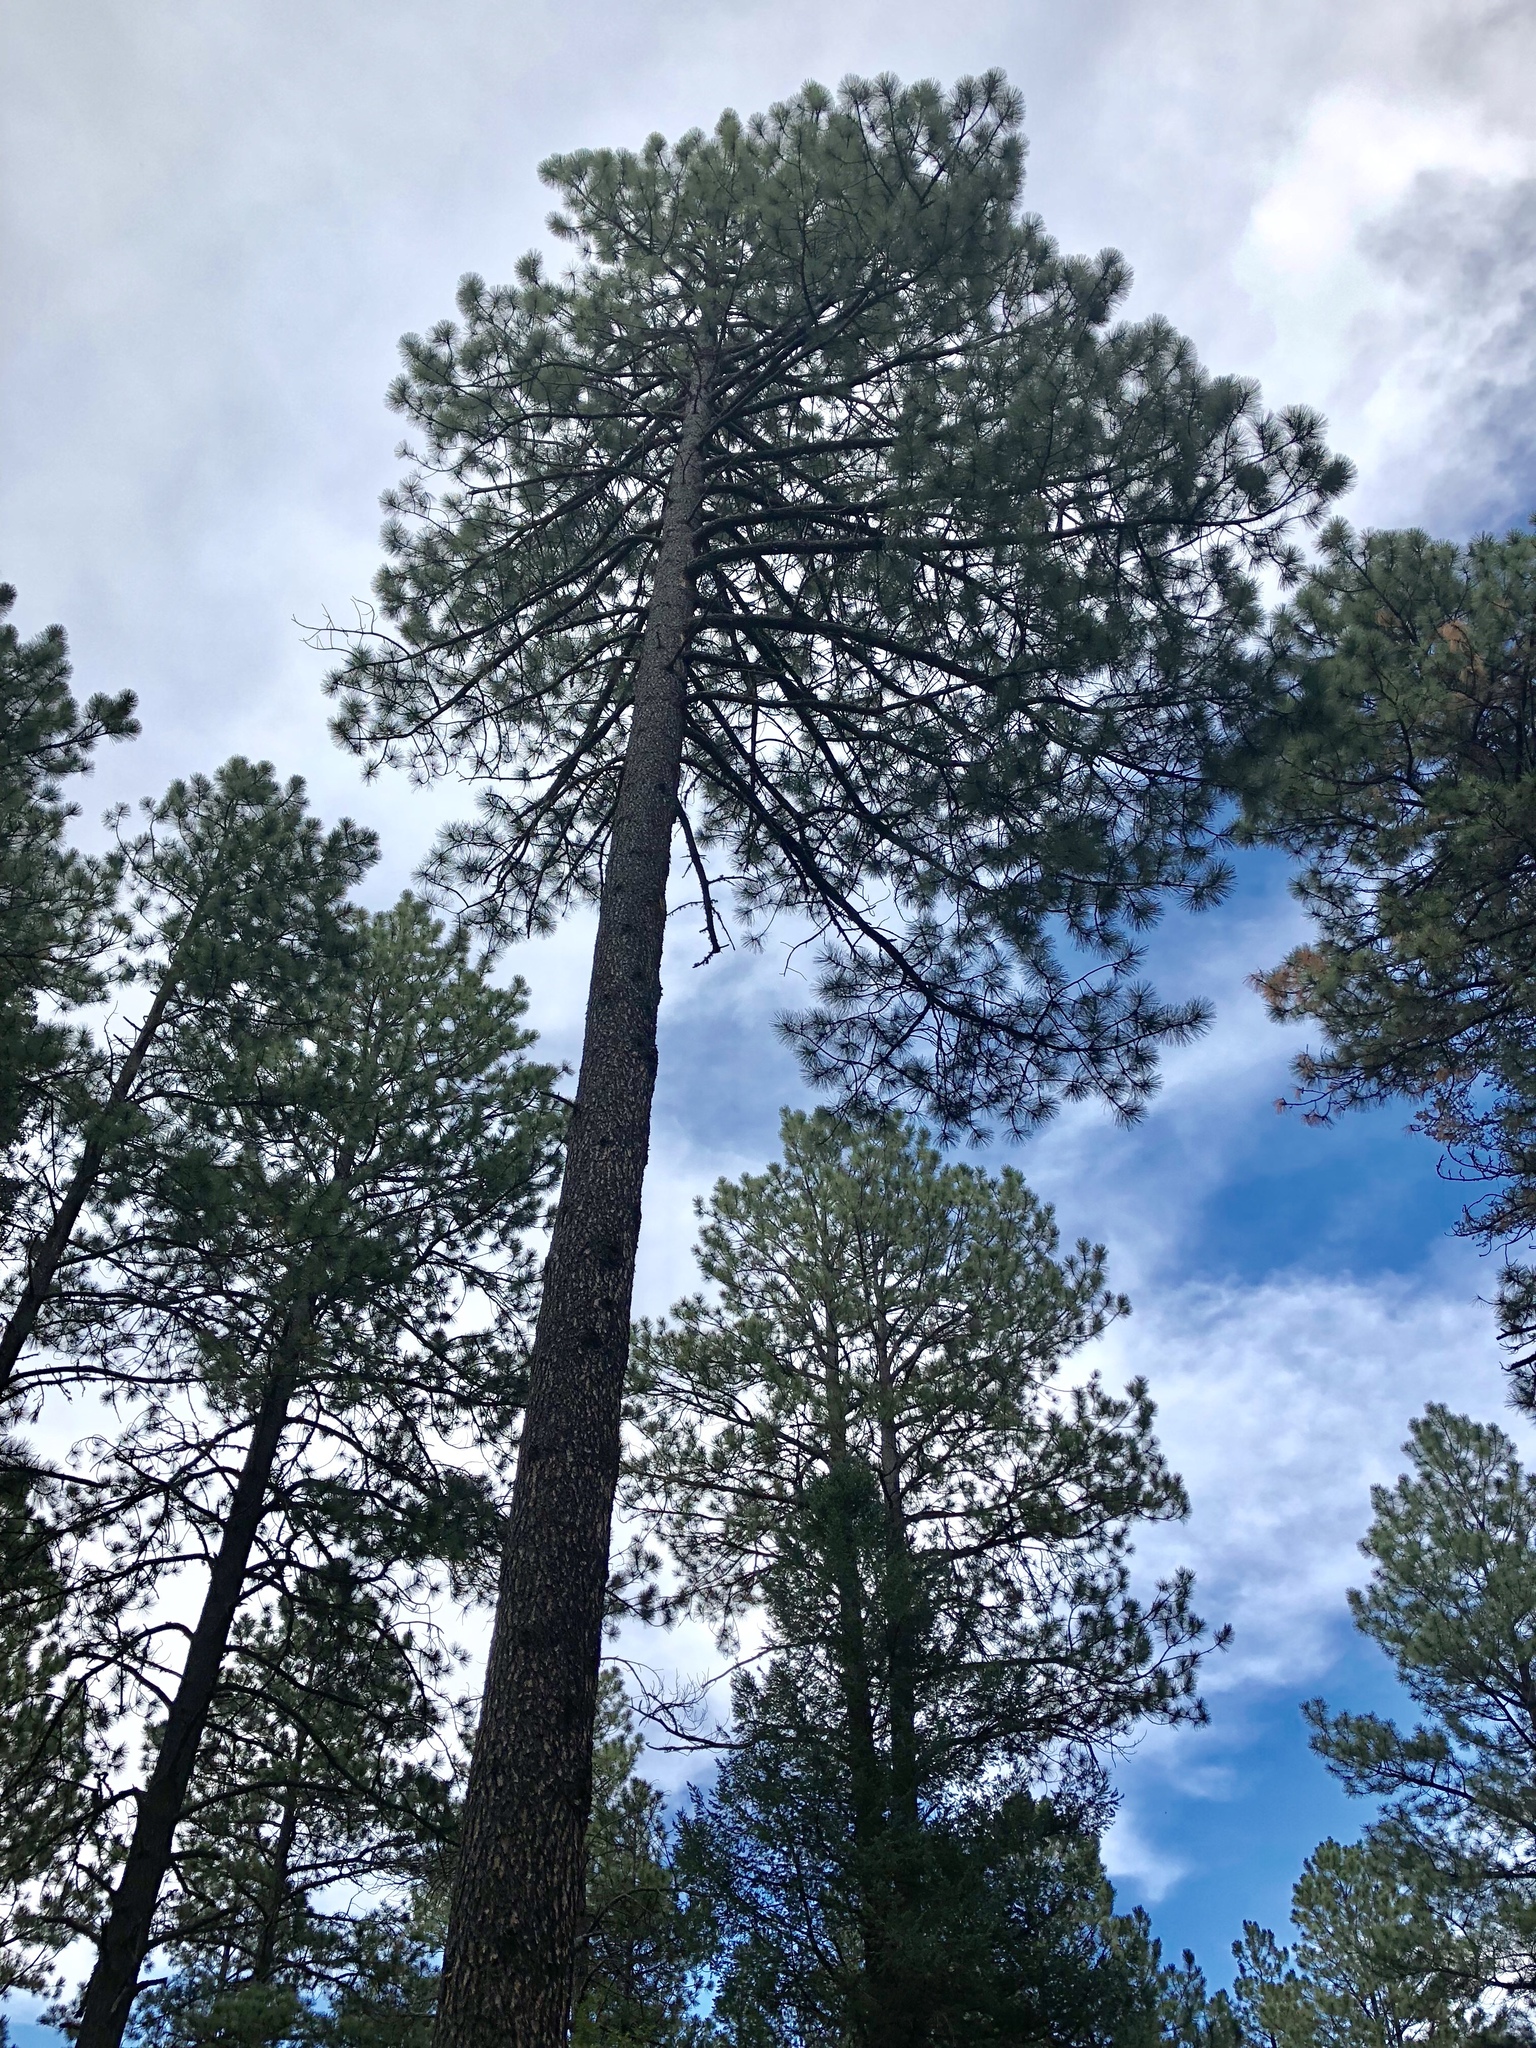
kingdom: Plantae
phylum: Tracheophyta
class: Pinopsida
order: Pinales
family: Pinaceae
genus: Pinus
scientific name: Pinus ponderosa
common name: Western yellow-pine
